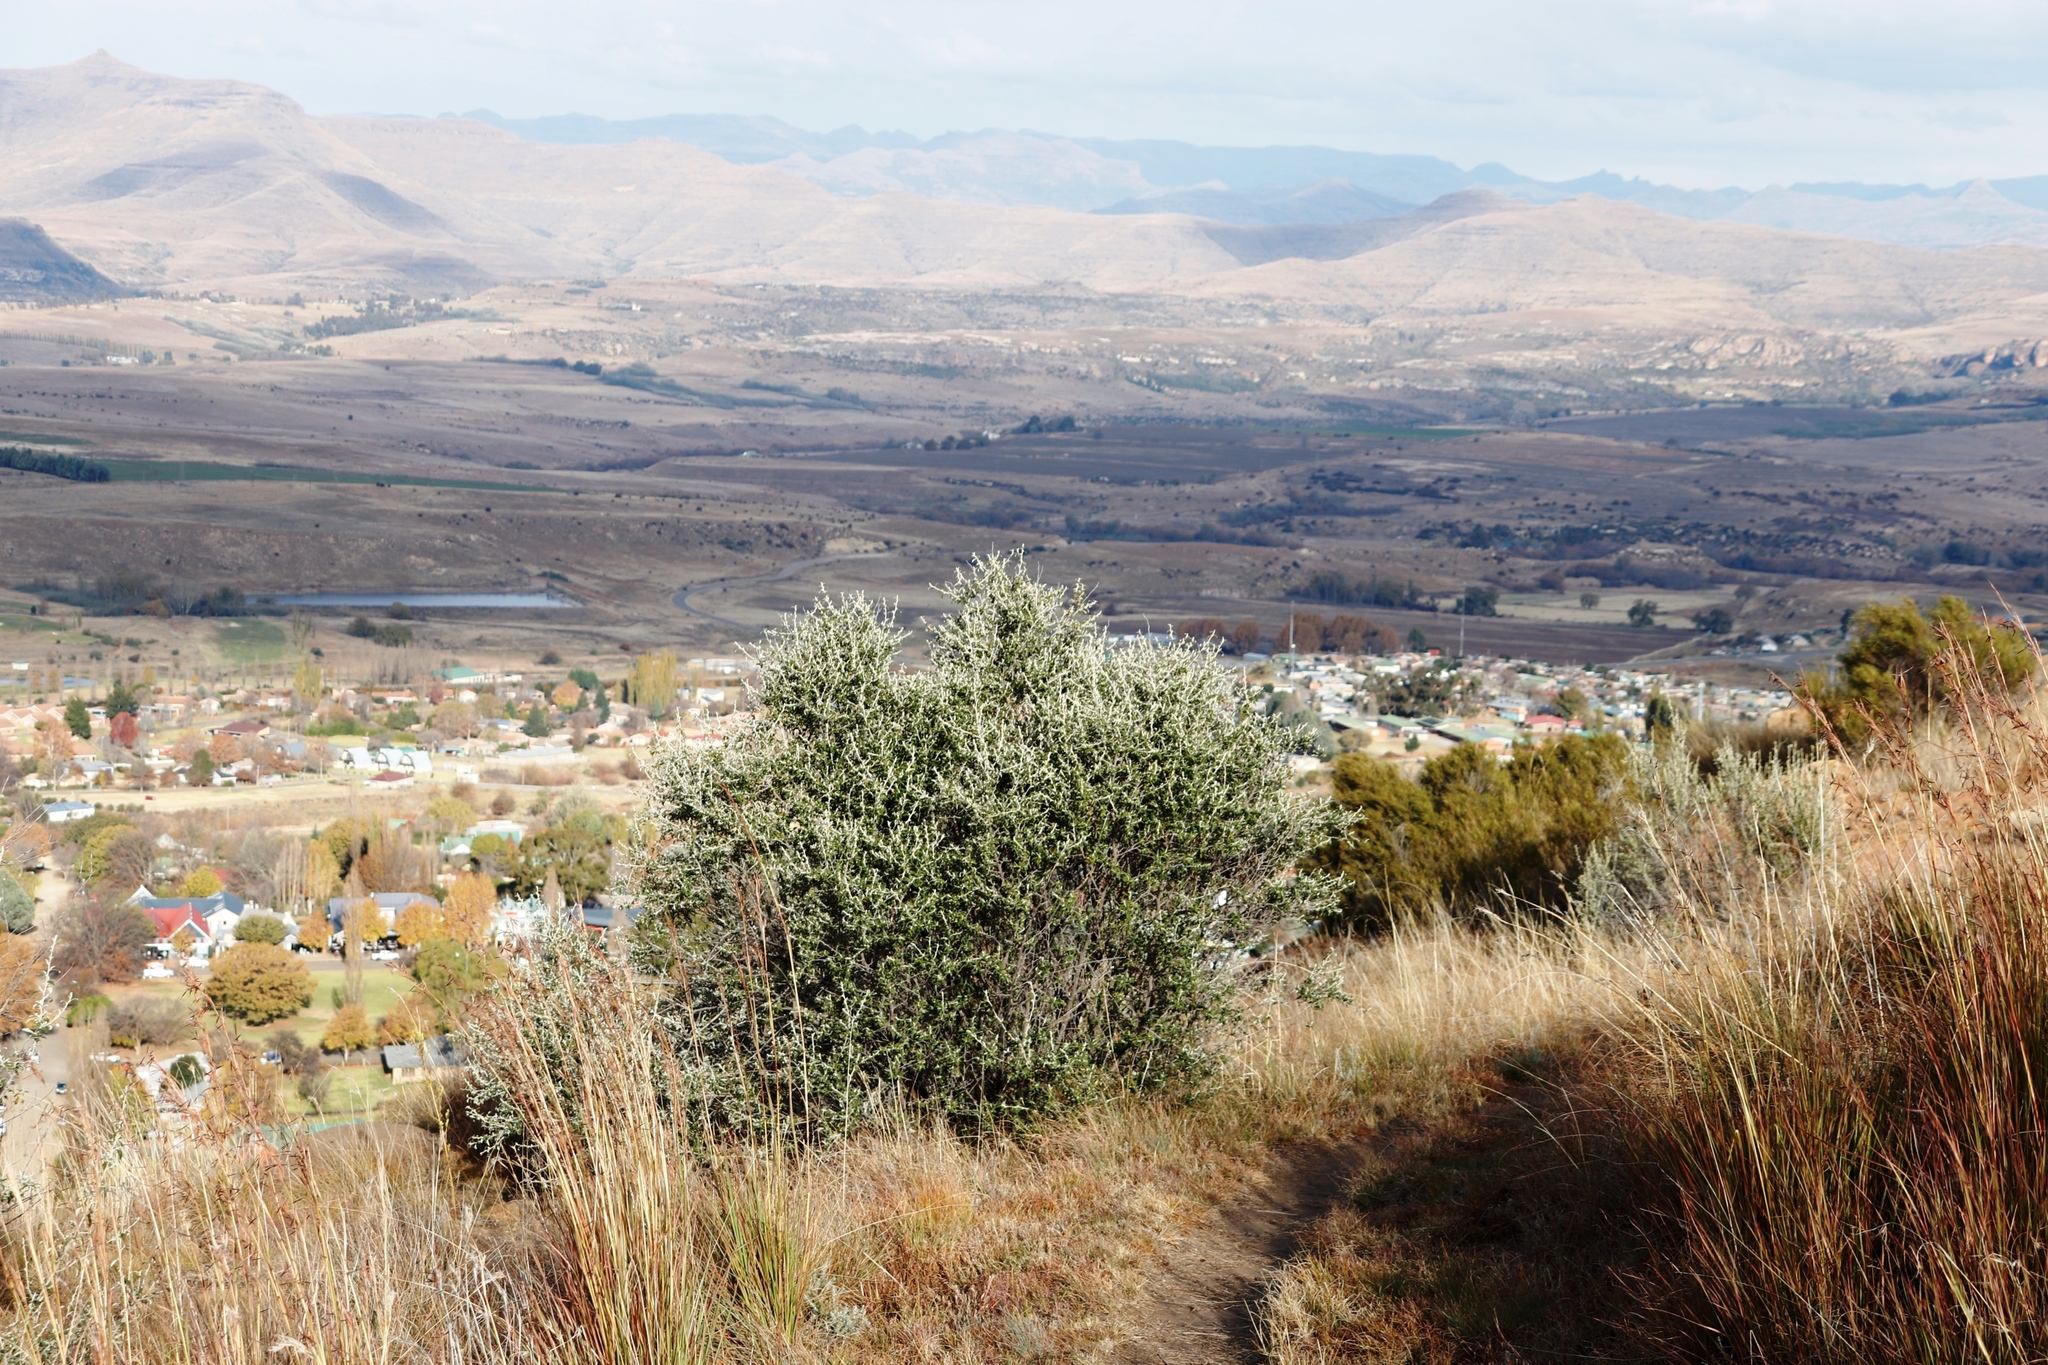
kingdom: Plantae
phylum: Tracheophyta
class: Magnoliopsida
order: Asterales
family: Asteraceae
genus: Tarchonanthus
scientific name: Tarchonanthus minor
